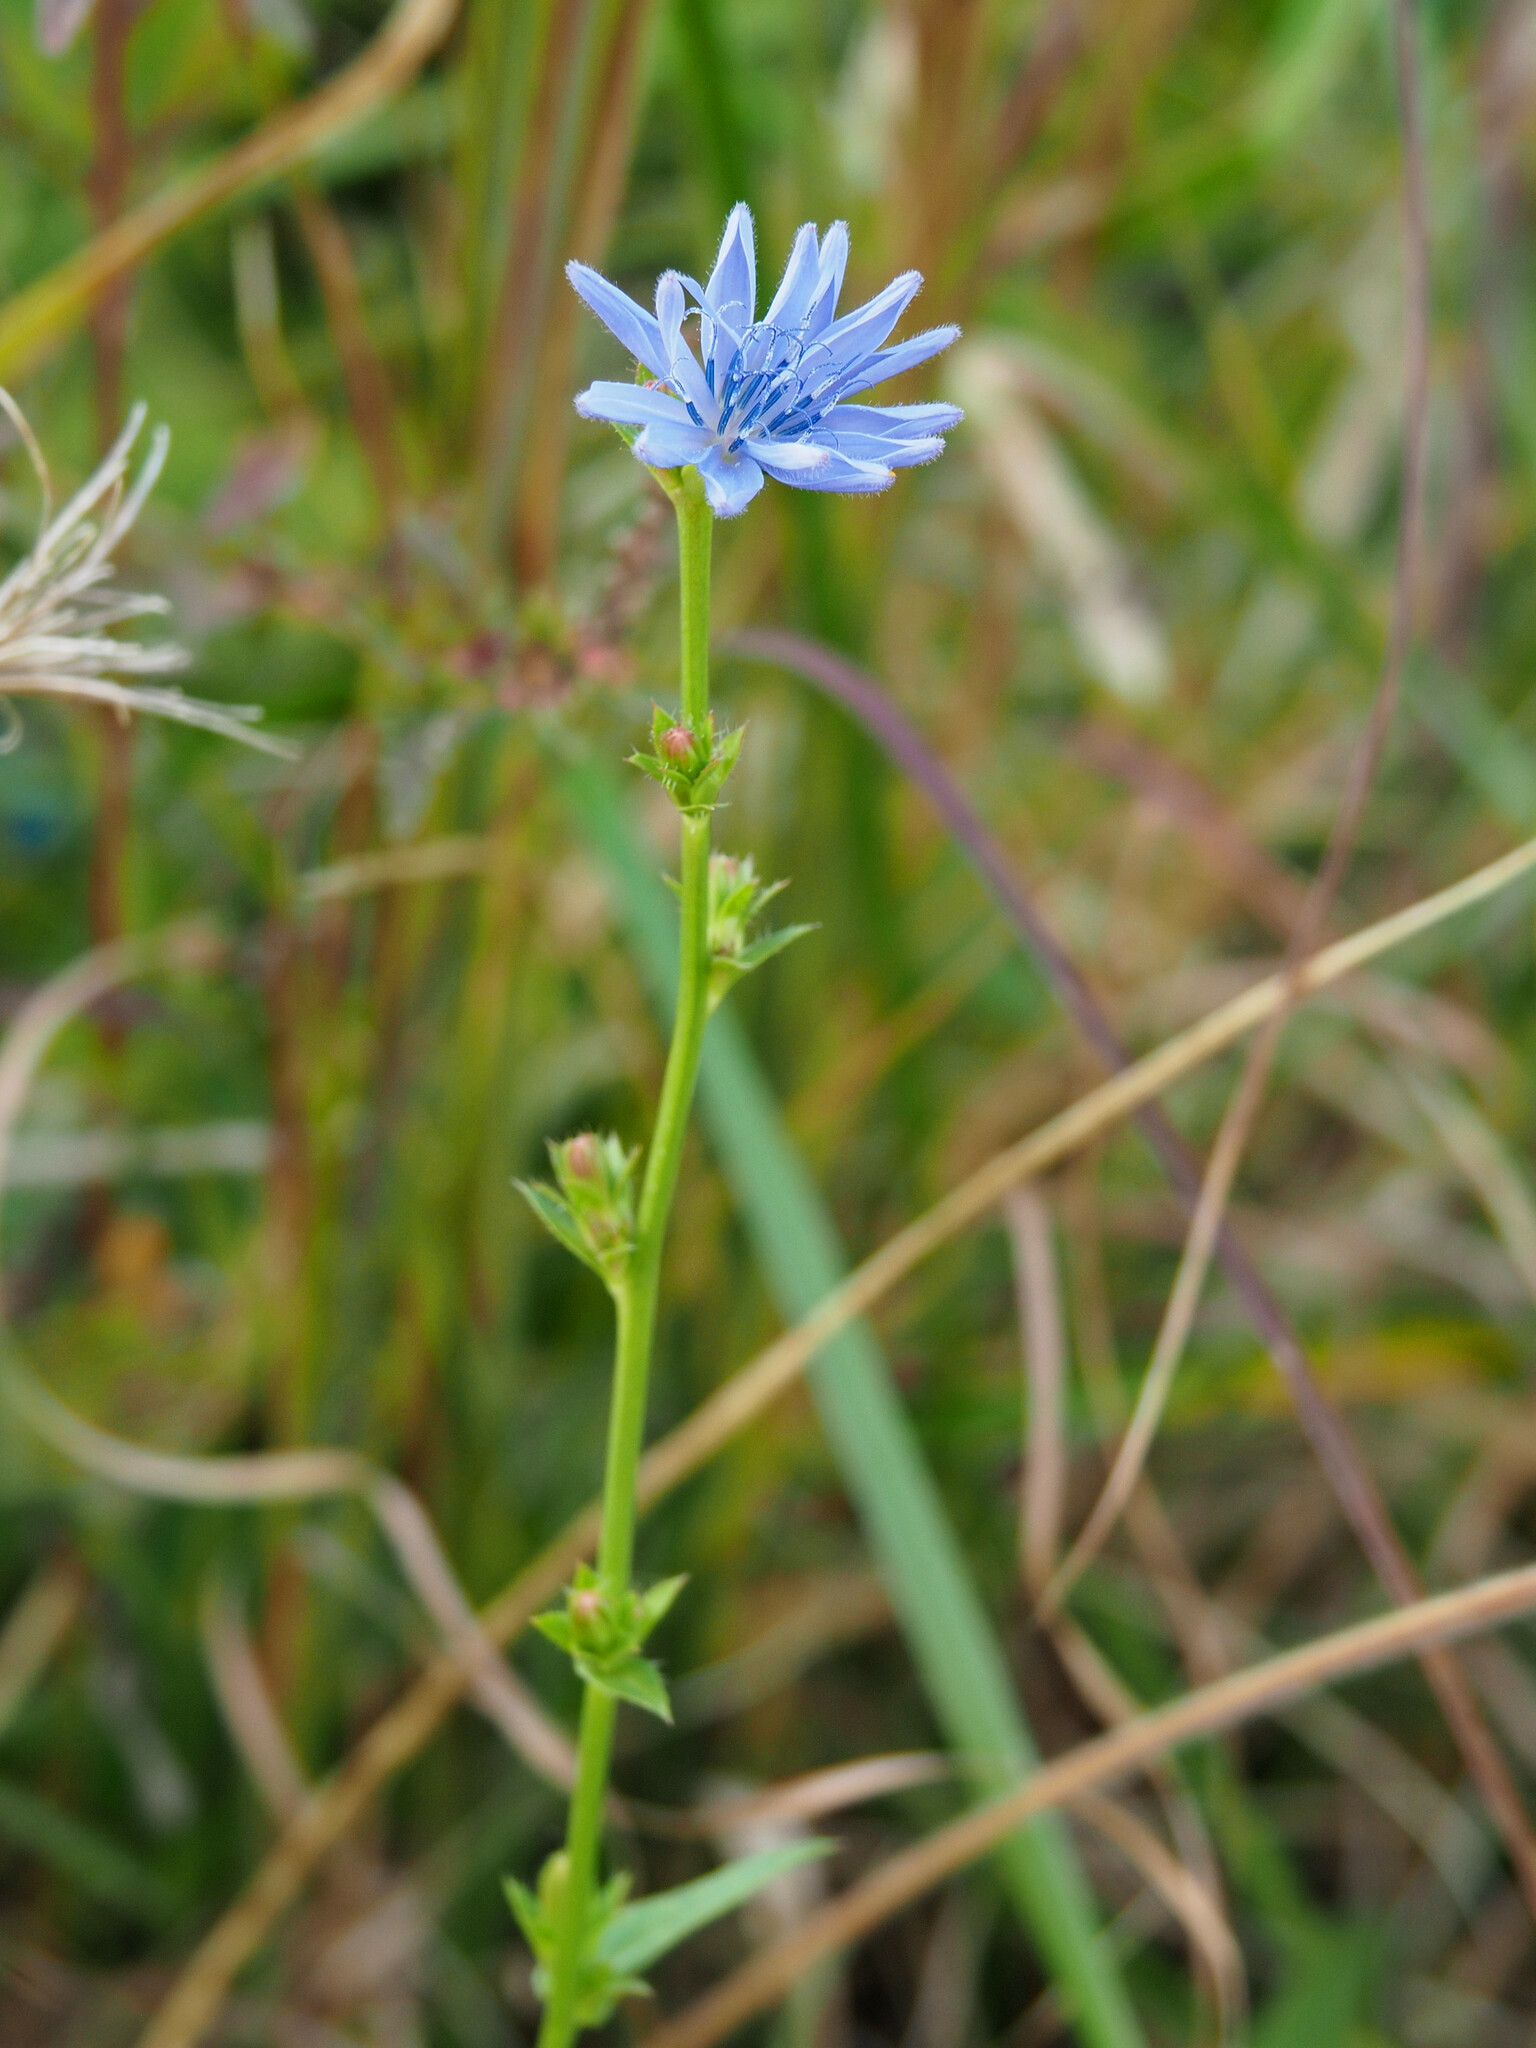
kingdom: Plantae
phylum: Tracheophyta
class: Magnoliopsida
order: Asterales
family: Asteraceae
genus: Cichorium
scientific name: Cichorium intybus
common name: Chicory
